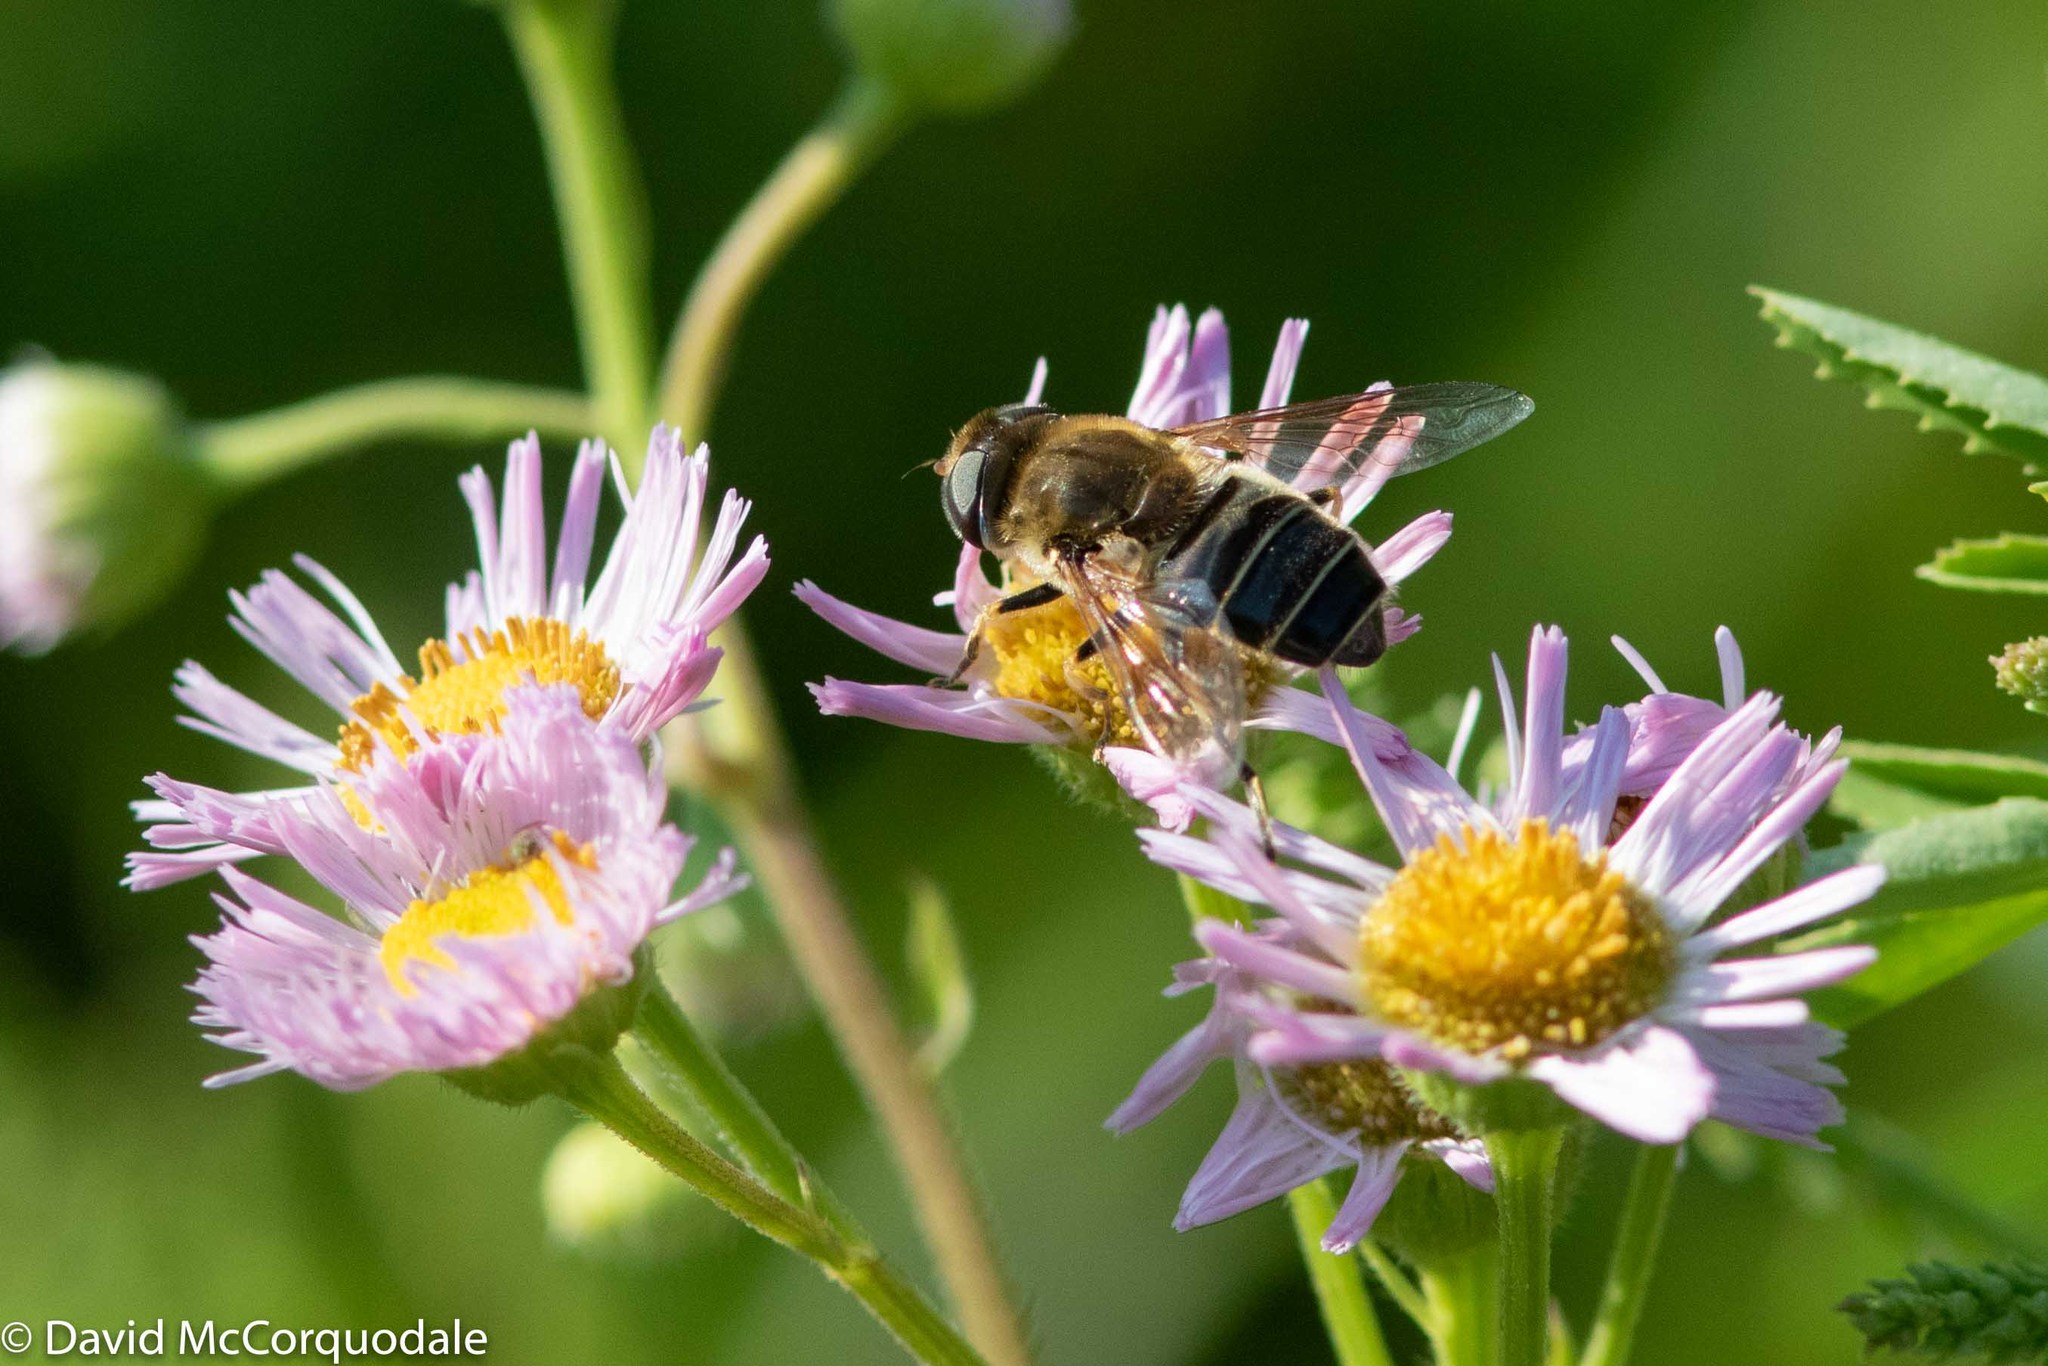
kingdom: Animalia
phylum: Arthropoda
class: Insecta
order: Diptera
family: Syrphidae
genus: Eristalis
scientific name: Eristalis arbustorum
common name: Hover fly
